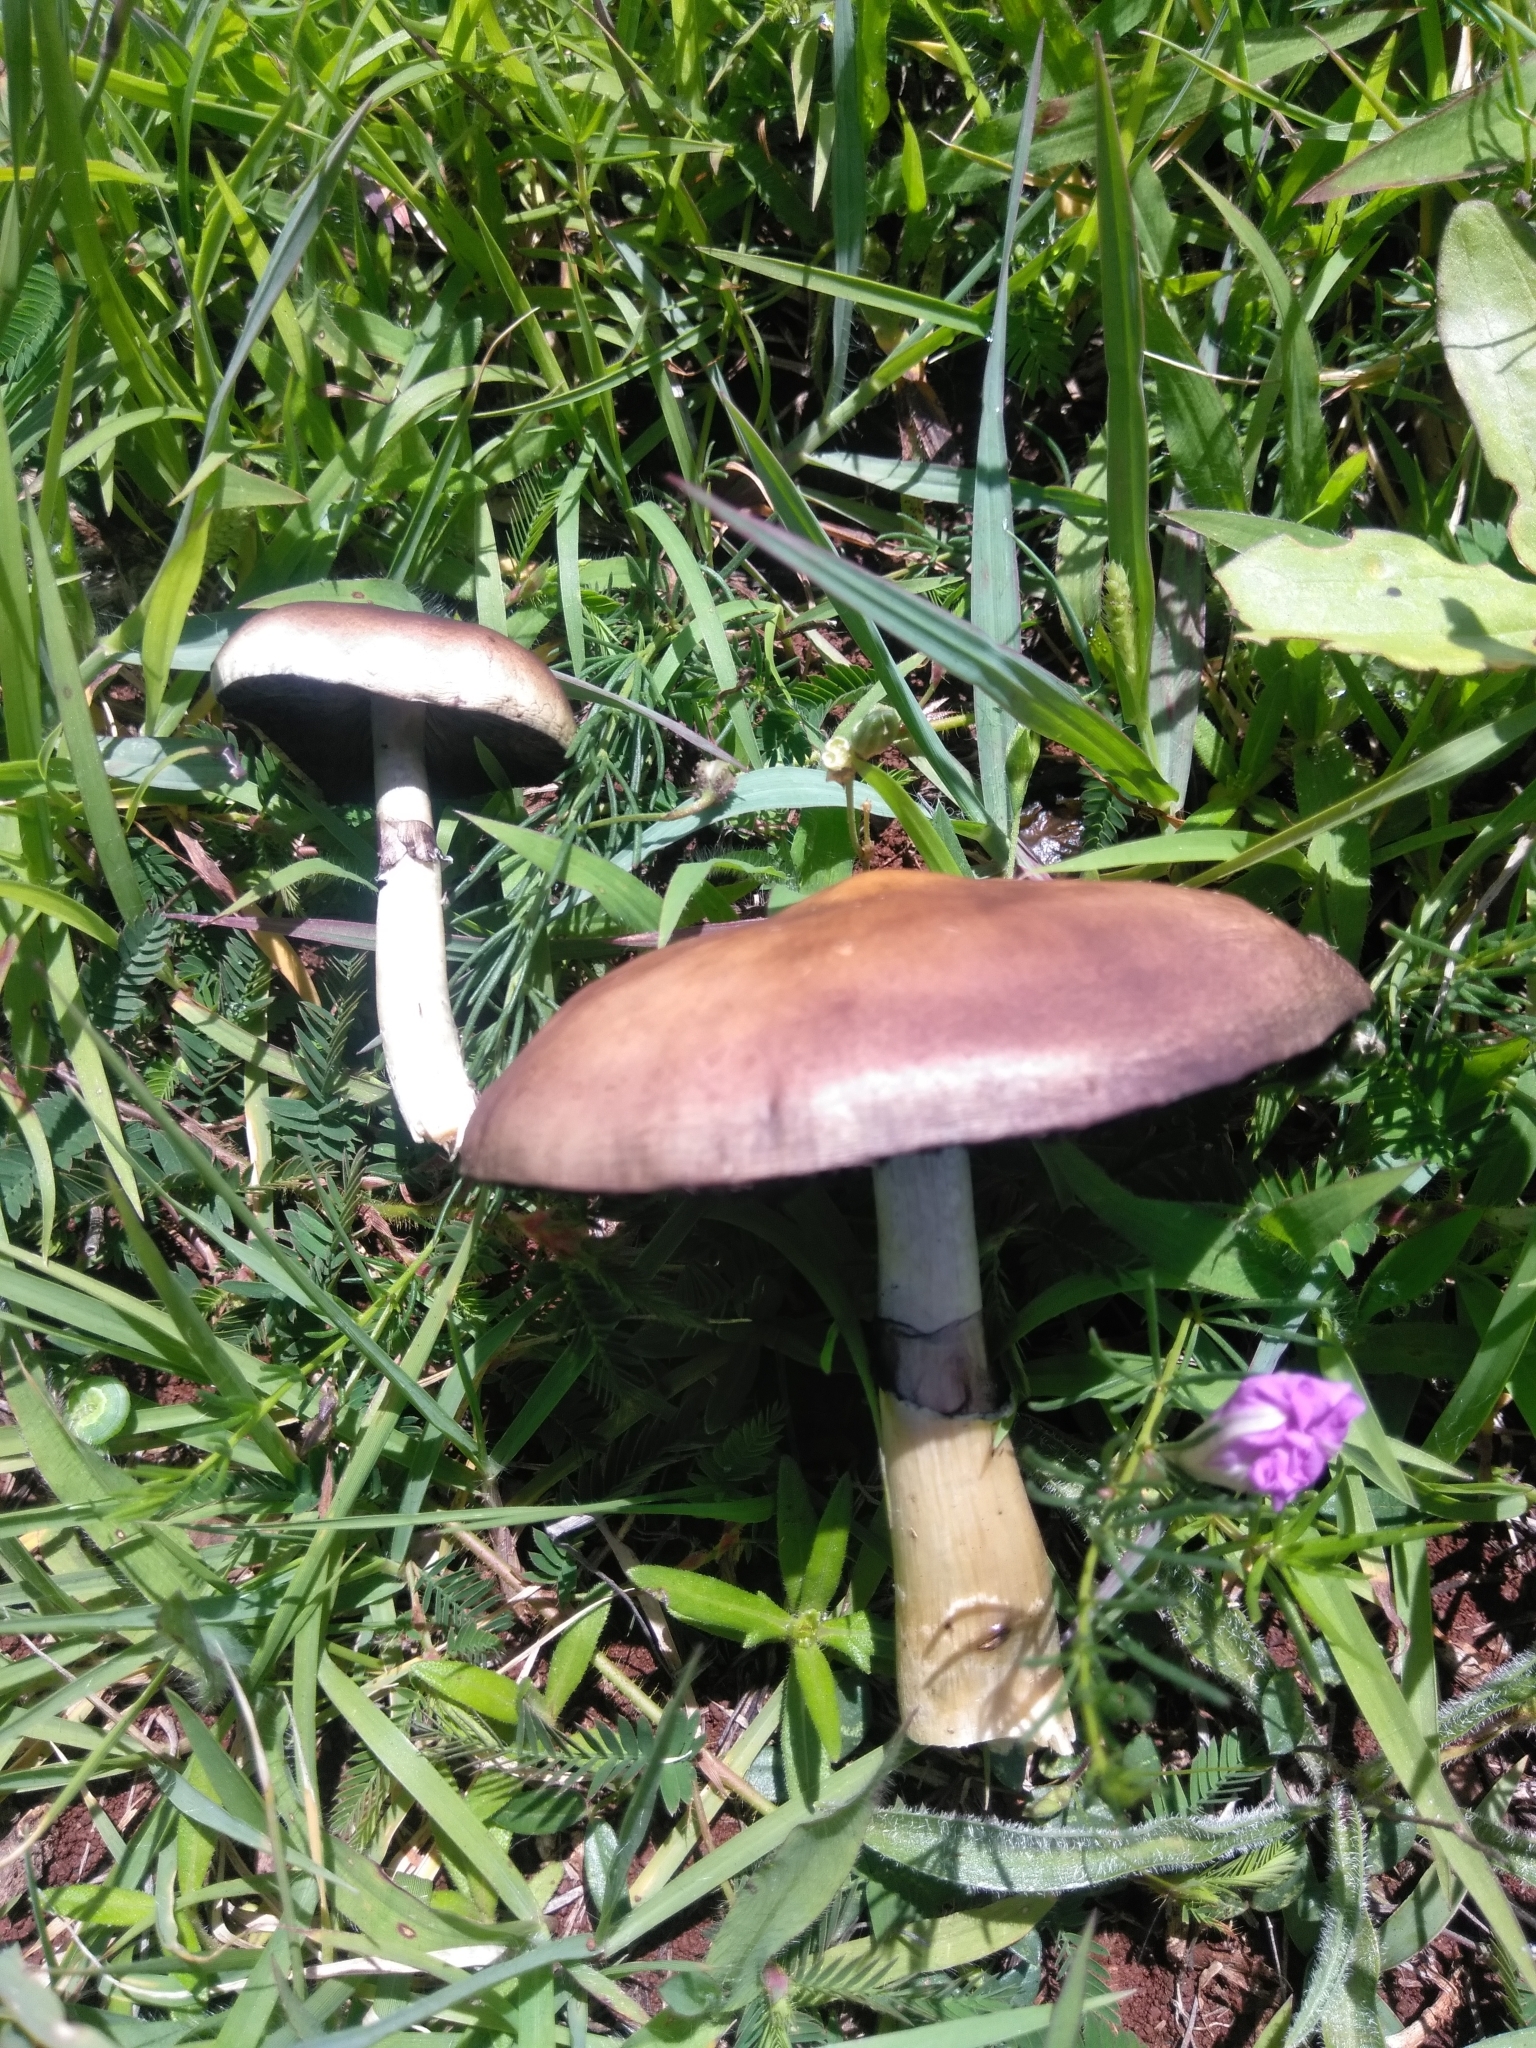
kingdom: Fungi
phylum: Basidiomycota
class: Agaricomycetes
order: Agaricales
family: Hymenogastraceae
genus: Psilocybe
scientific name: Psilocybe cubensis
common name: Golden brownie
